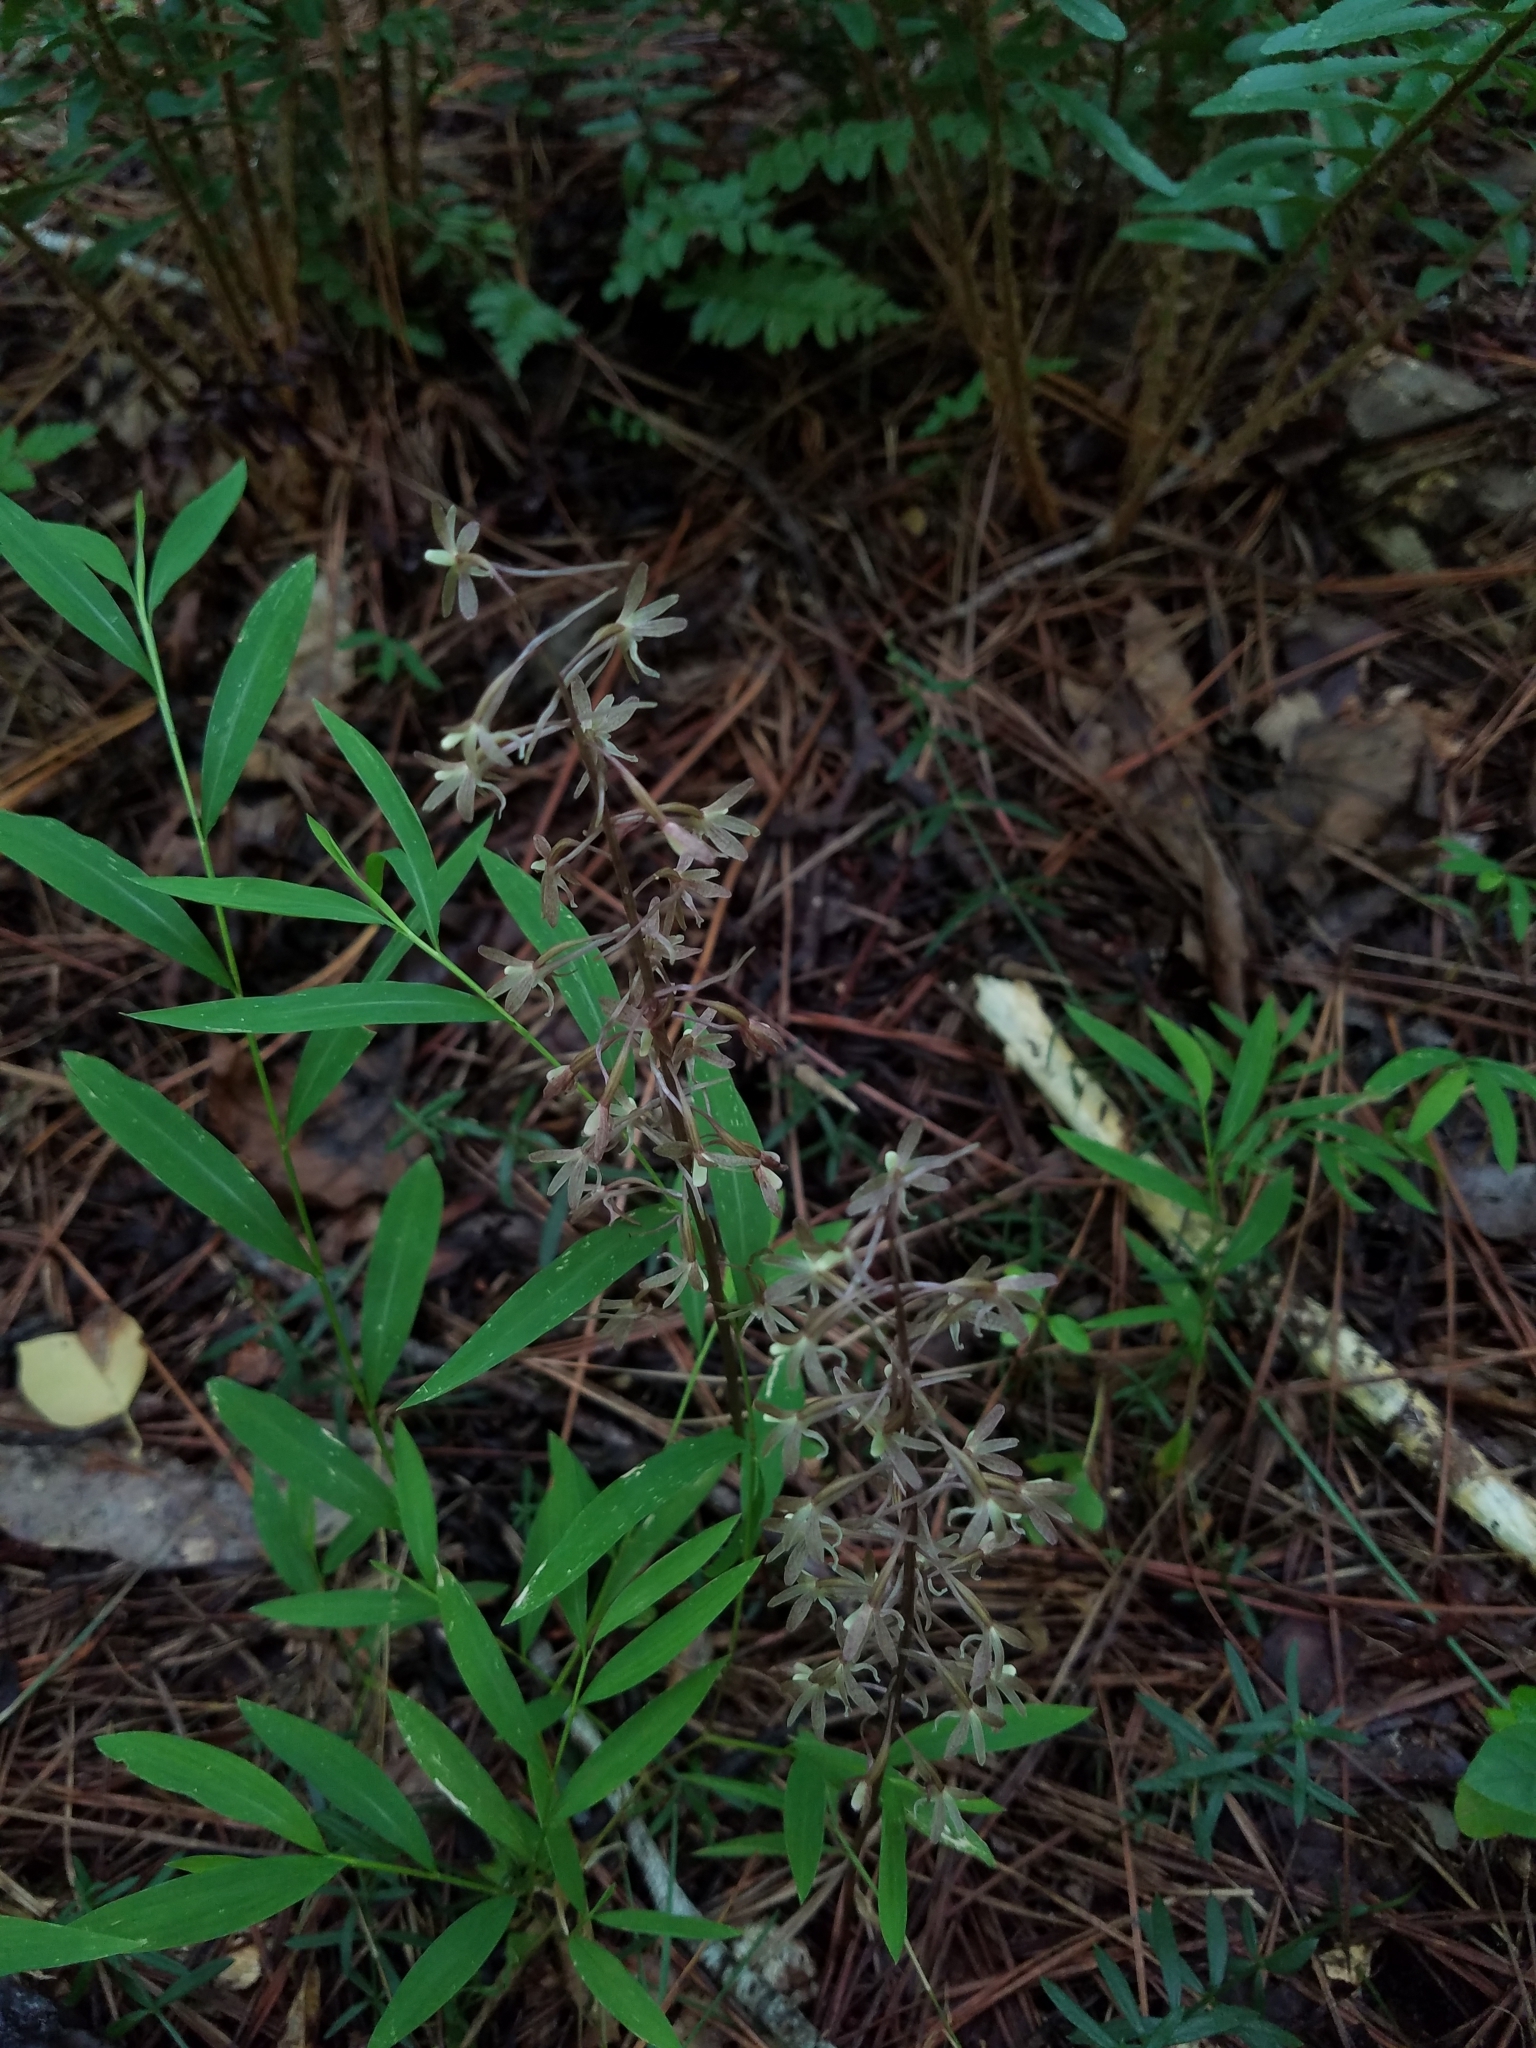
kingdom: Plantae
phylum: Tracheophyta
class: Liliopsida
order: Asparagales
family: Orchidaceae
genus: Tipularia
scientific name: Tipularia discolor
